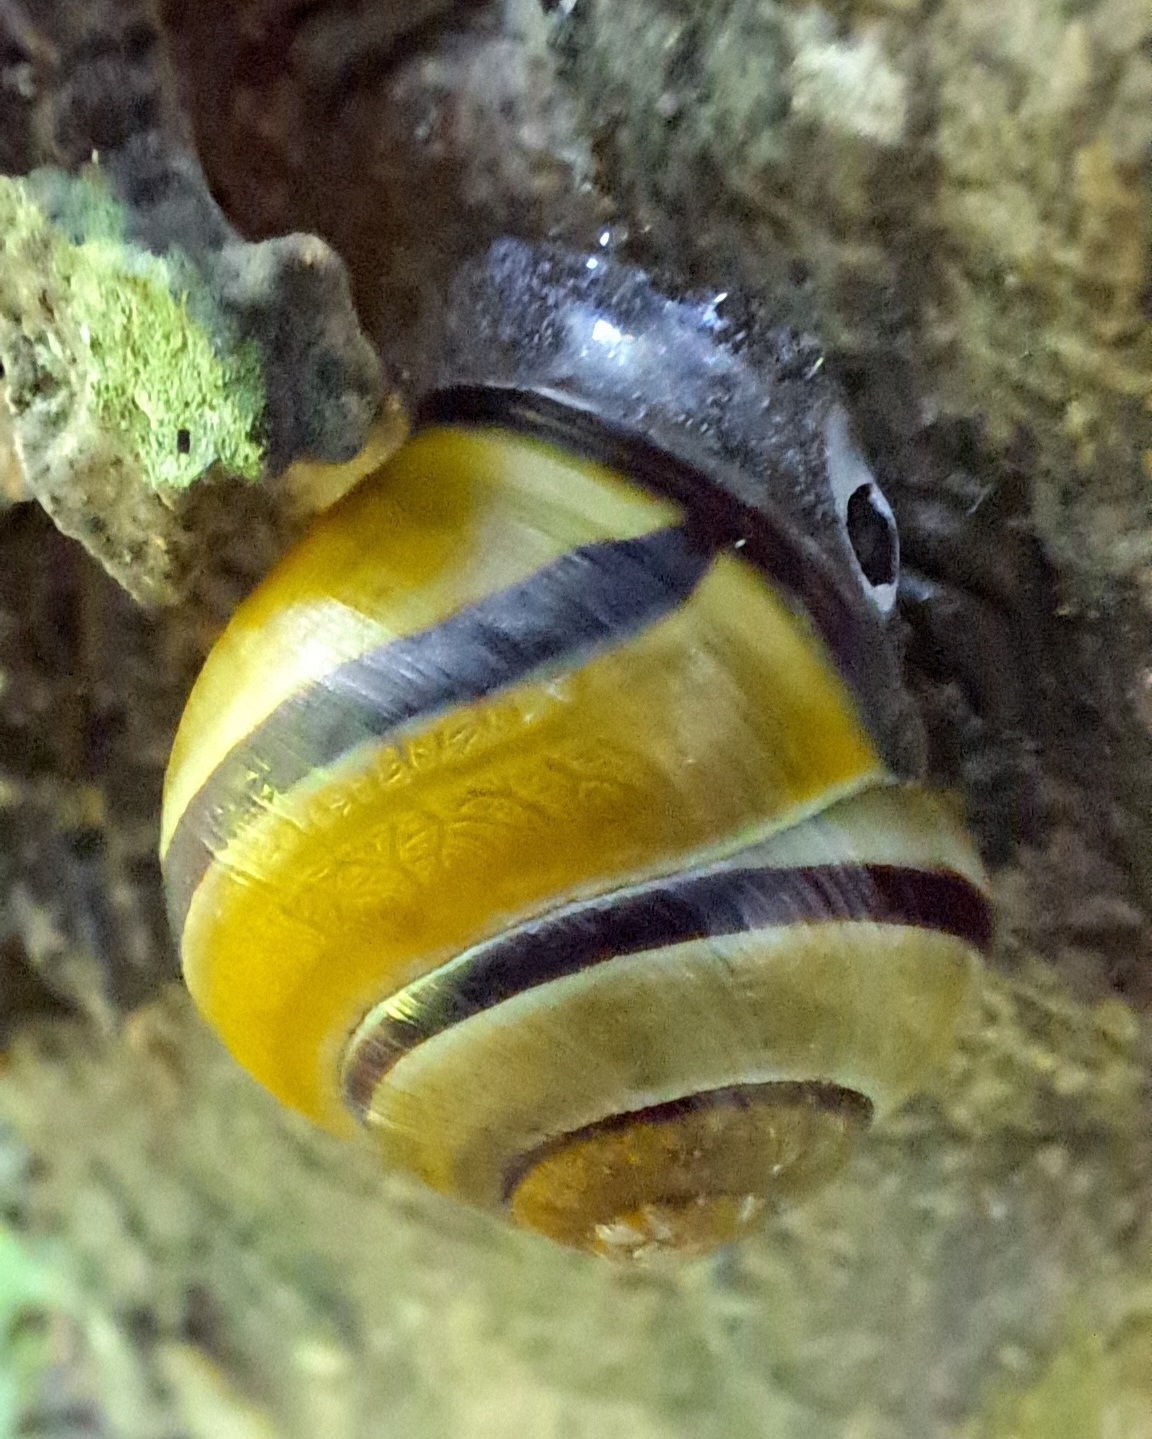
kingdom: Animalia
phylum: Mollusca
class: Gastropoda
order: Stylommatophora
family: Helicidae
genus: Cepaea
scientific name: Cepaea nemoralis
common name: Grovesnail
